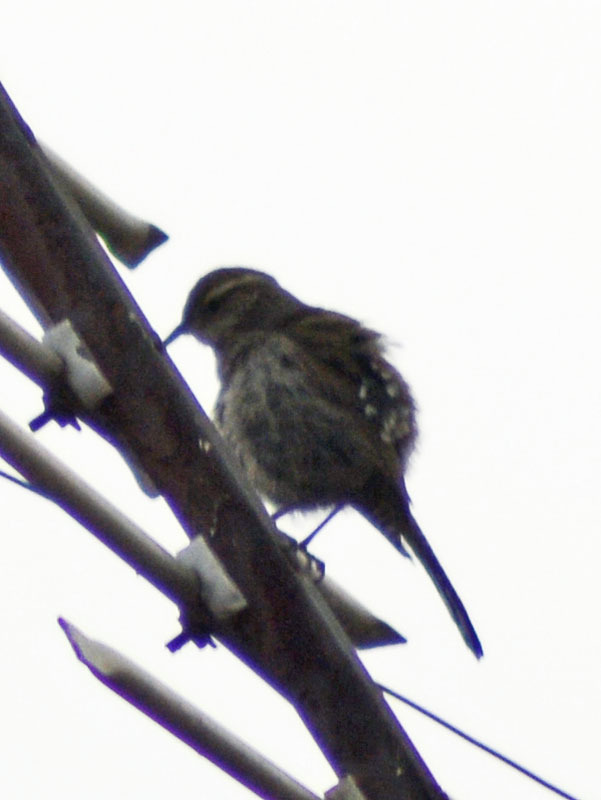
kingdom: Animalia
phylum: Chordata
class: Aves
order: Passeriformes
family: Troglodytidae
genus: Thryomanes
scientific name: Thryomanes bewickii
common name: Bewick's wren
